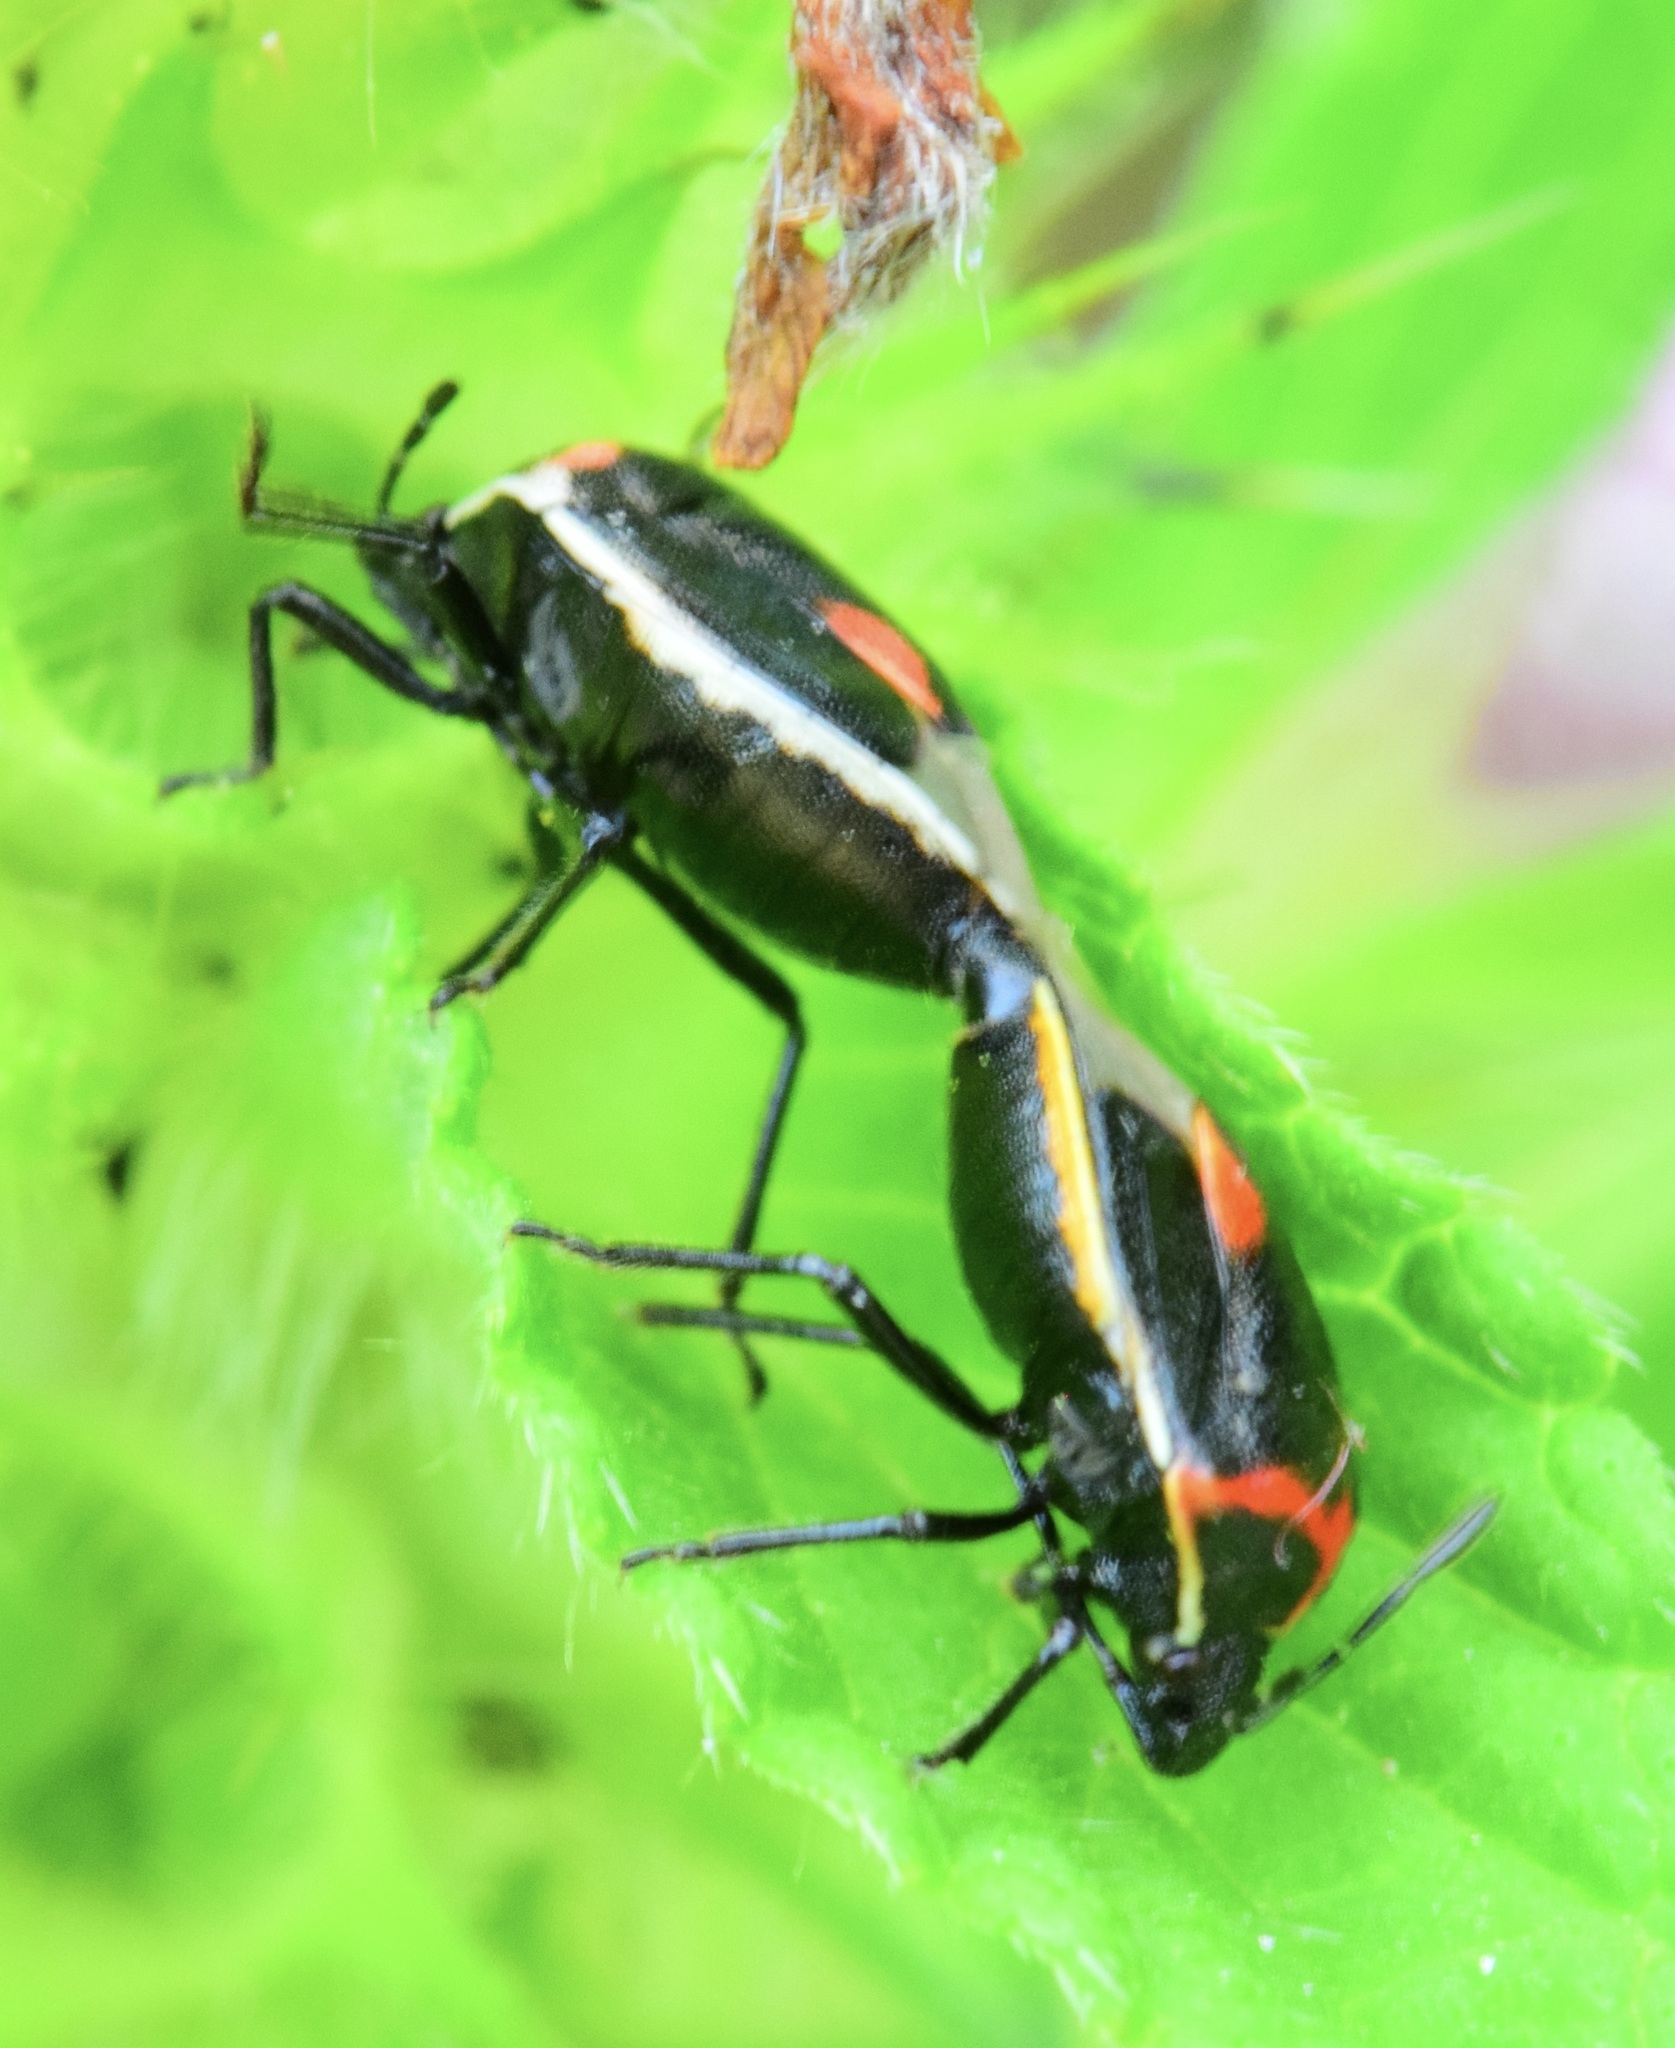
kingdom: Animalia
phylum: Arthropoda
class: Insecta
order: Hemiptera
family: Pentatomidae
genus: Cosmopepla
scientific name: Cosmopepla lintneriana
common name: Twice-stabbed stink bug
